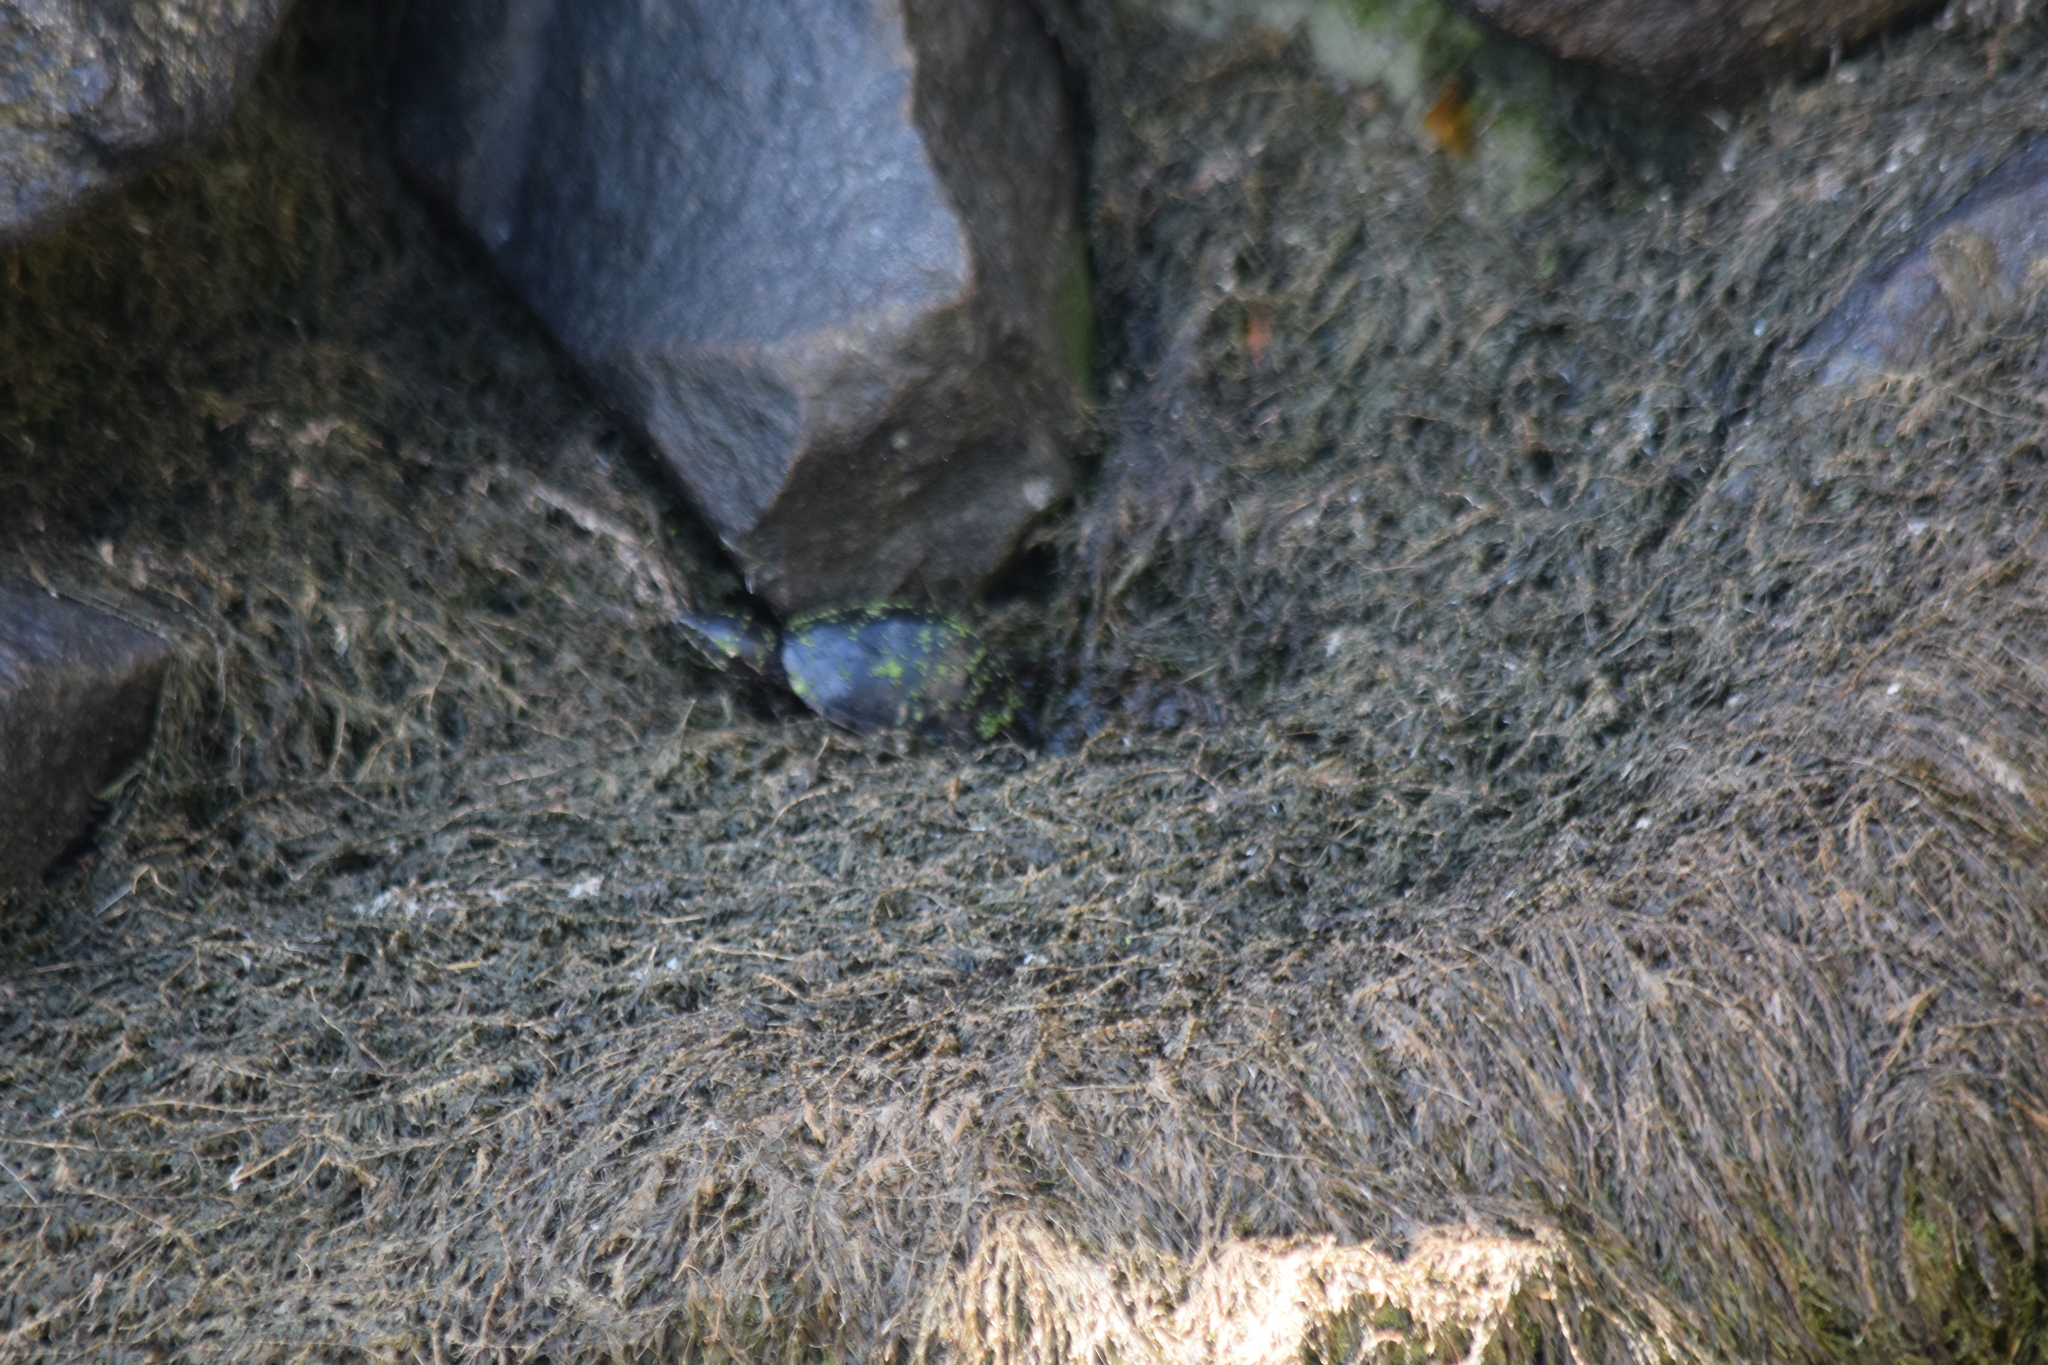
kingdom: Animalia
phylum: Chordata
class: Testudines
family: Kinosternidae
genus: Sternotherus
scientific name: Sternotherus odoratus
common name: Common musk turtle
